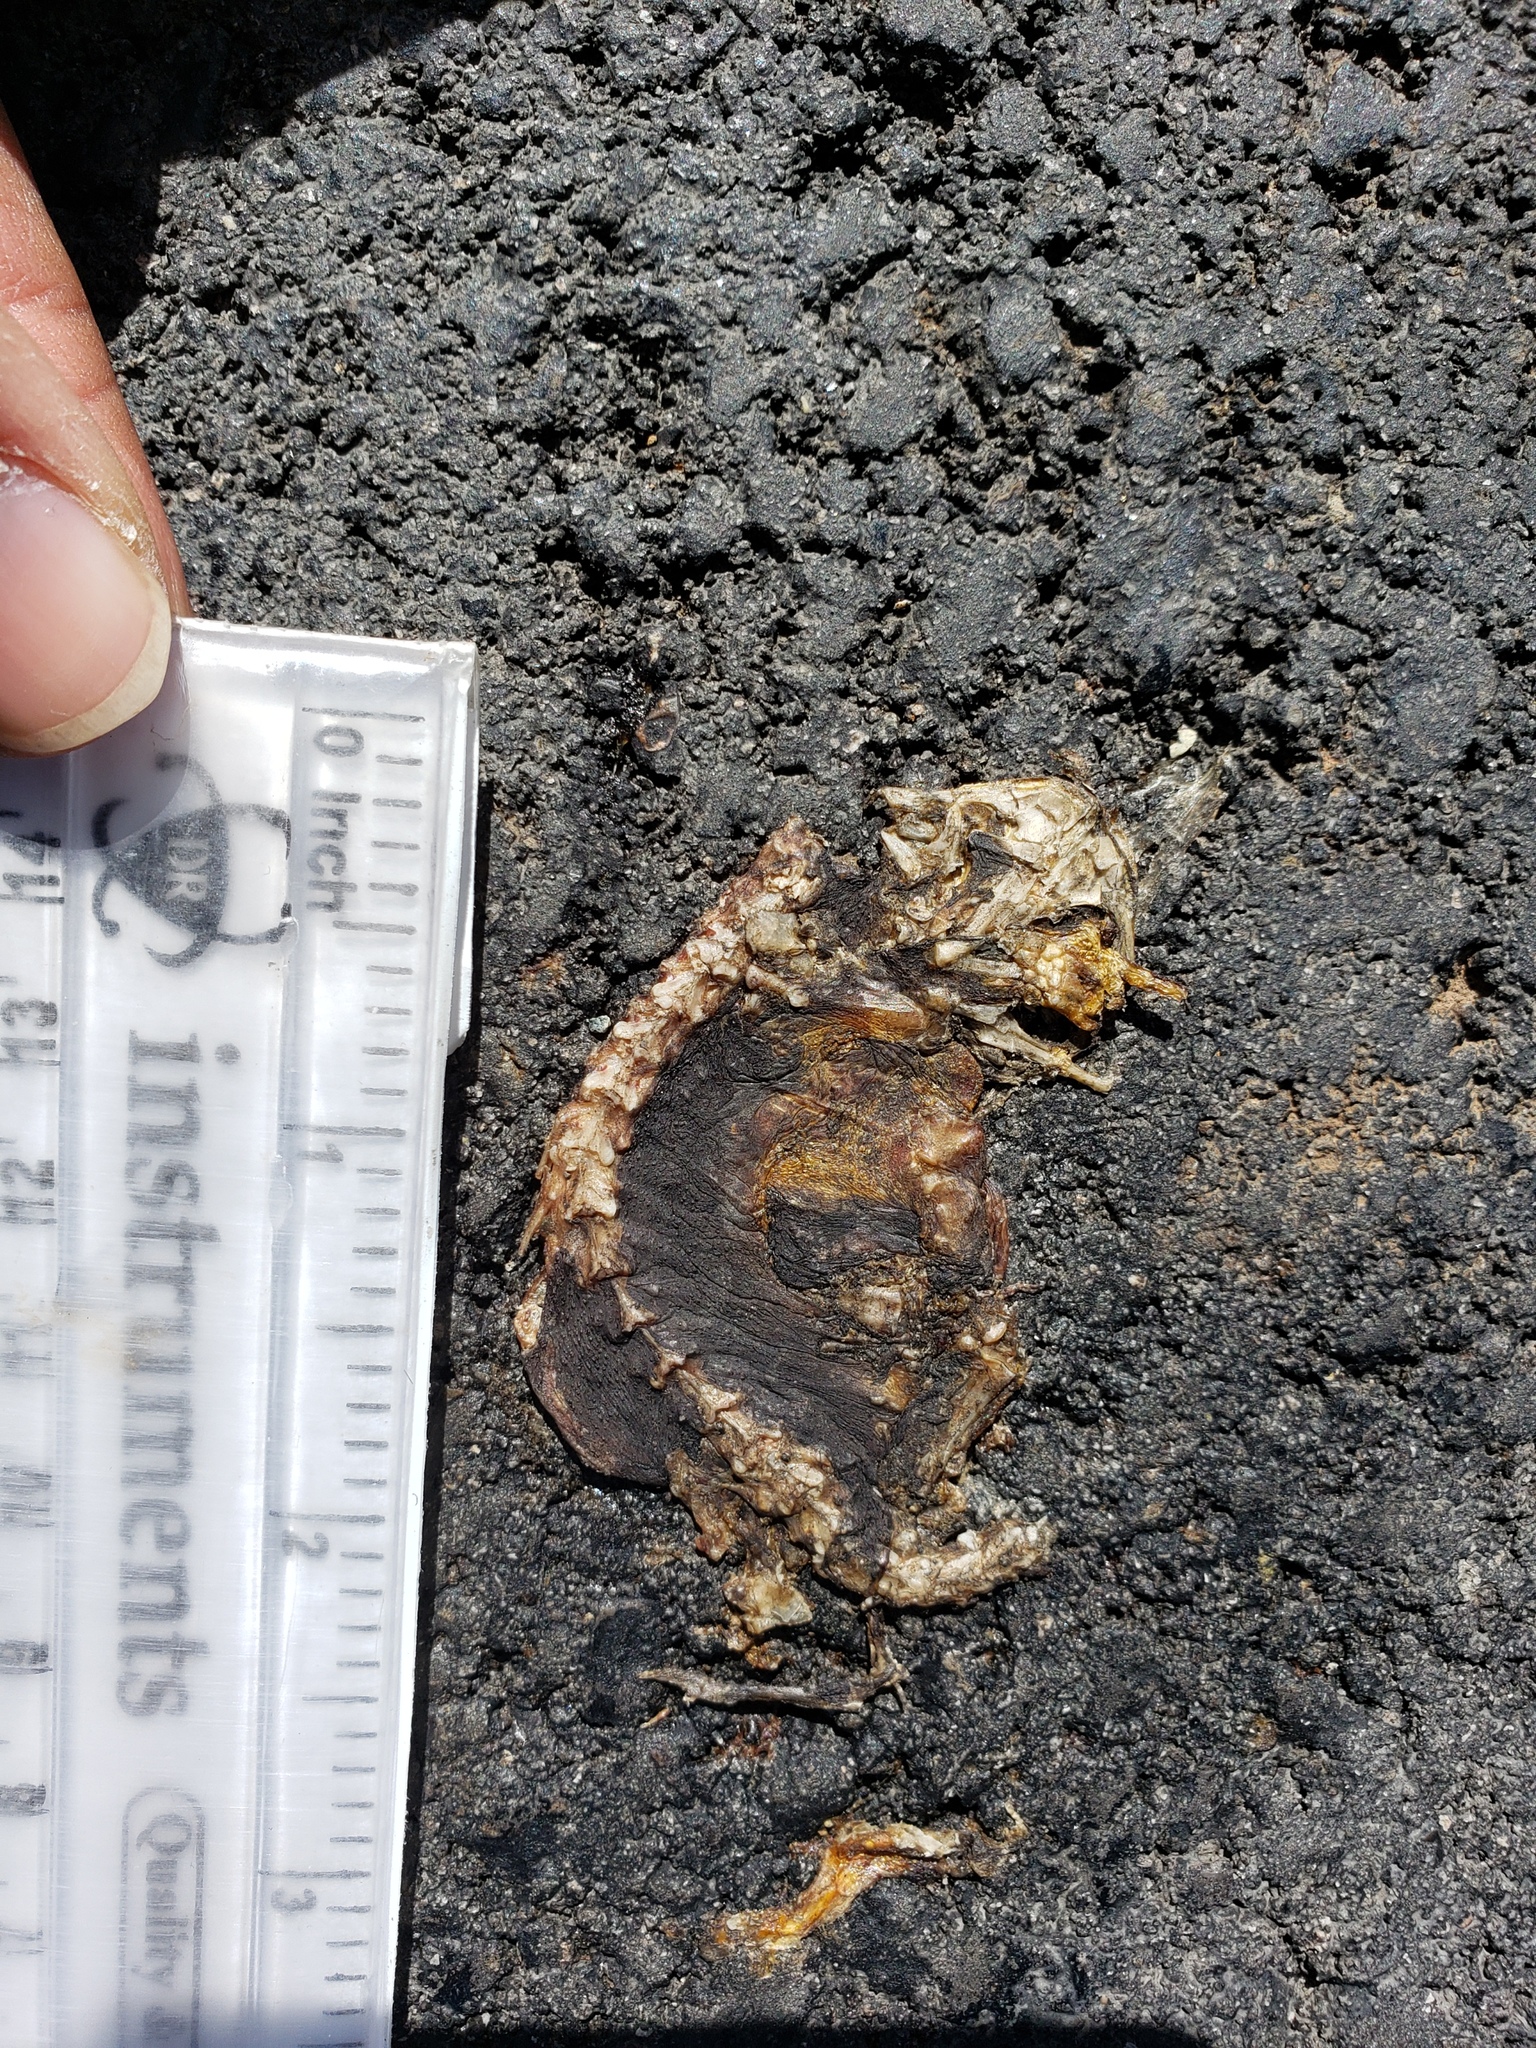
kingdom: Animalia
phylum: Chordata
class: Amphibia
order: Caudata
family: Salamandridae
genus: Taricha
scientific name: Taricha
